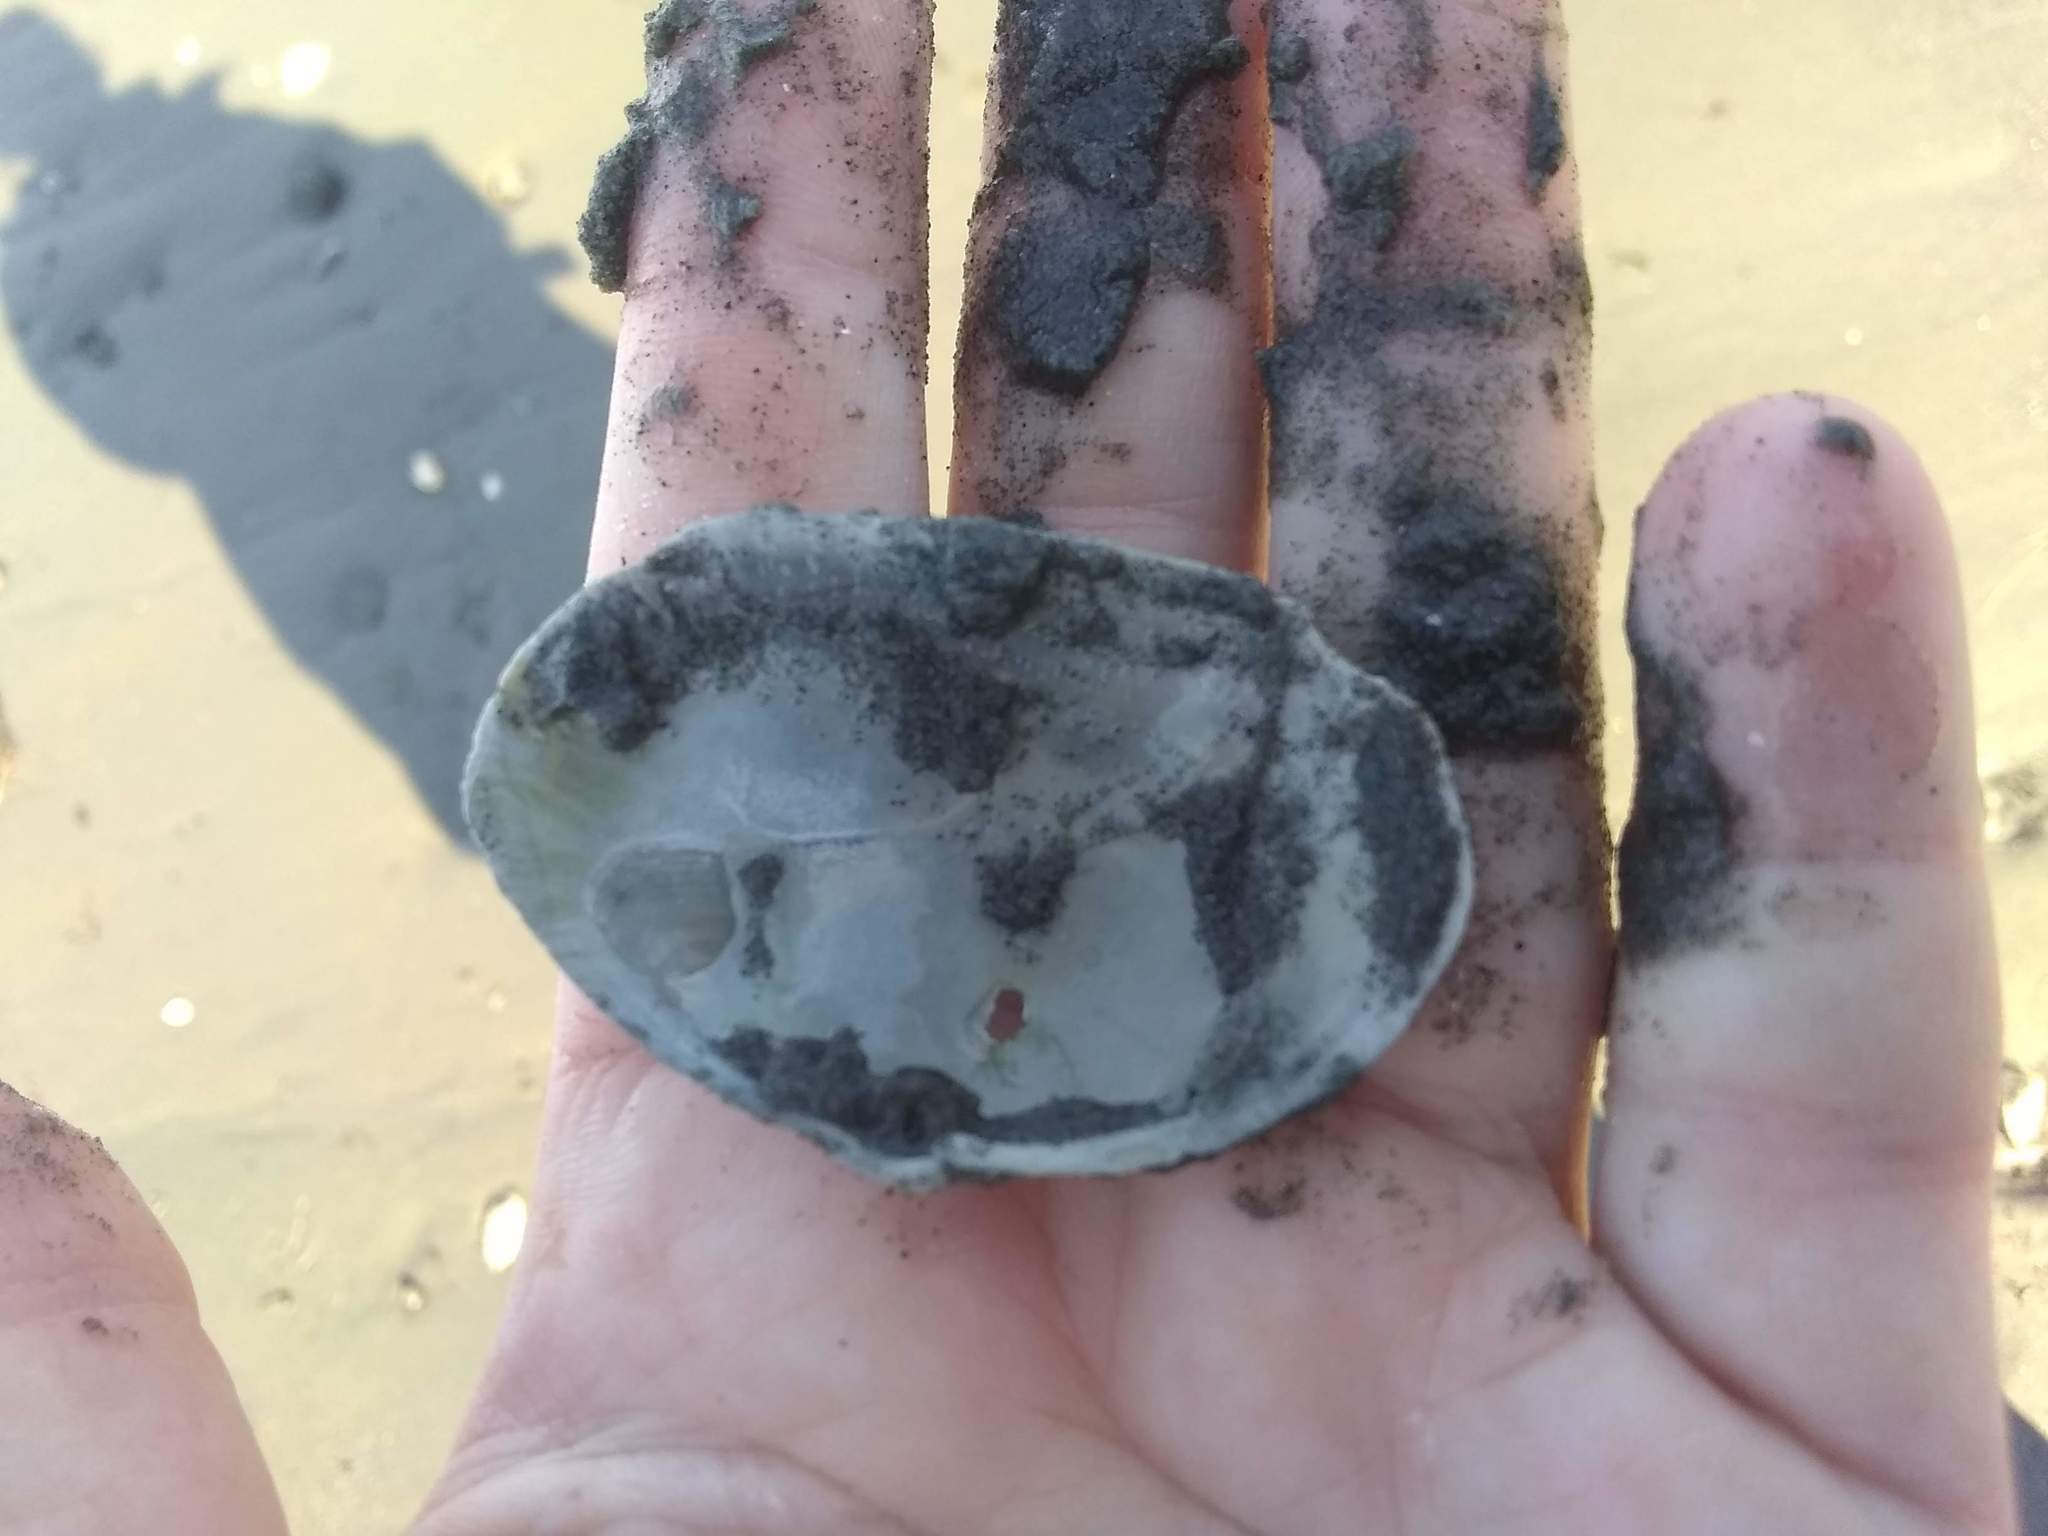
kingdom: Animalia
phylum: Mollusca
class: Bivalvia
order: Myida
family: Myidae
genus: Mya
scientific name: Mya arenaria
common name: Soft-shelled clam
